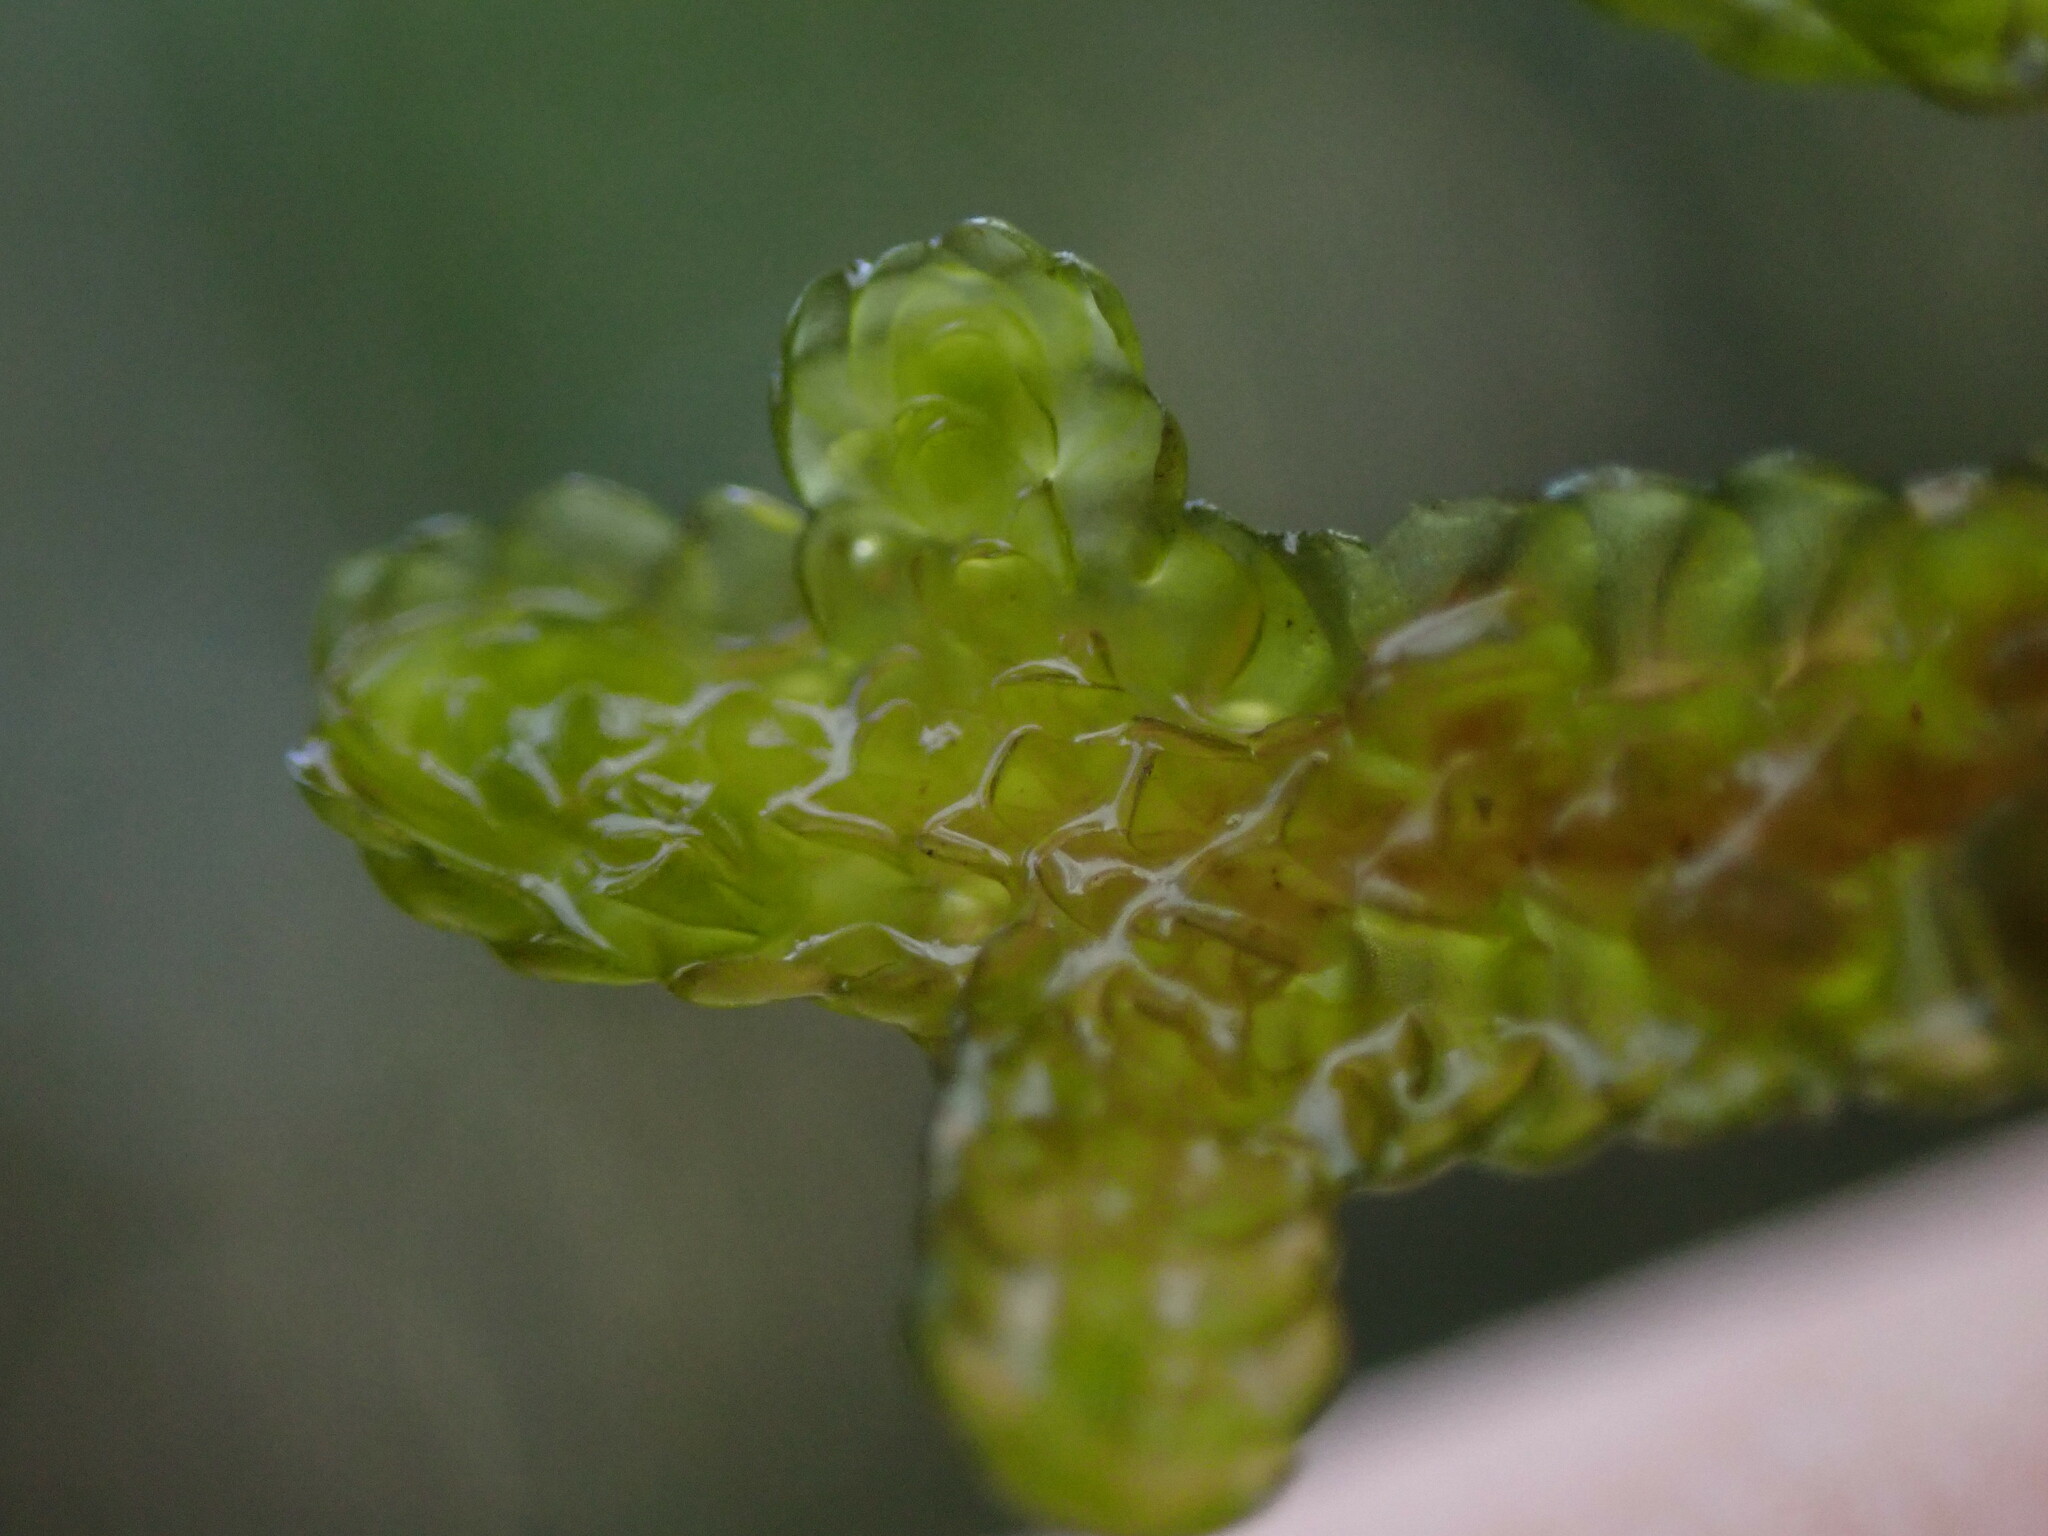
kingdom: Plantae
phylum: Marchantiophyta
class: Jungermanniopsida
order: Porellales
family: Porellaceae
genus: Porella
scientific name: Porella navicularis
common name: Tree ruffle liverwort
